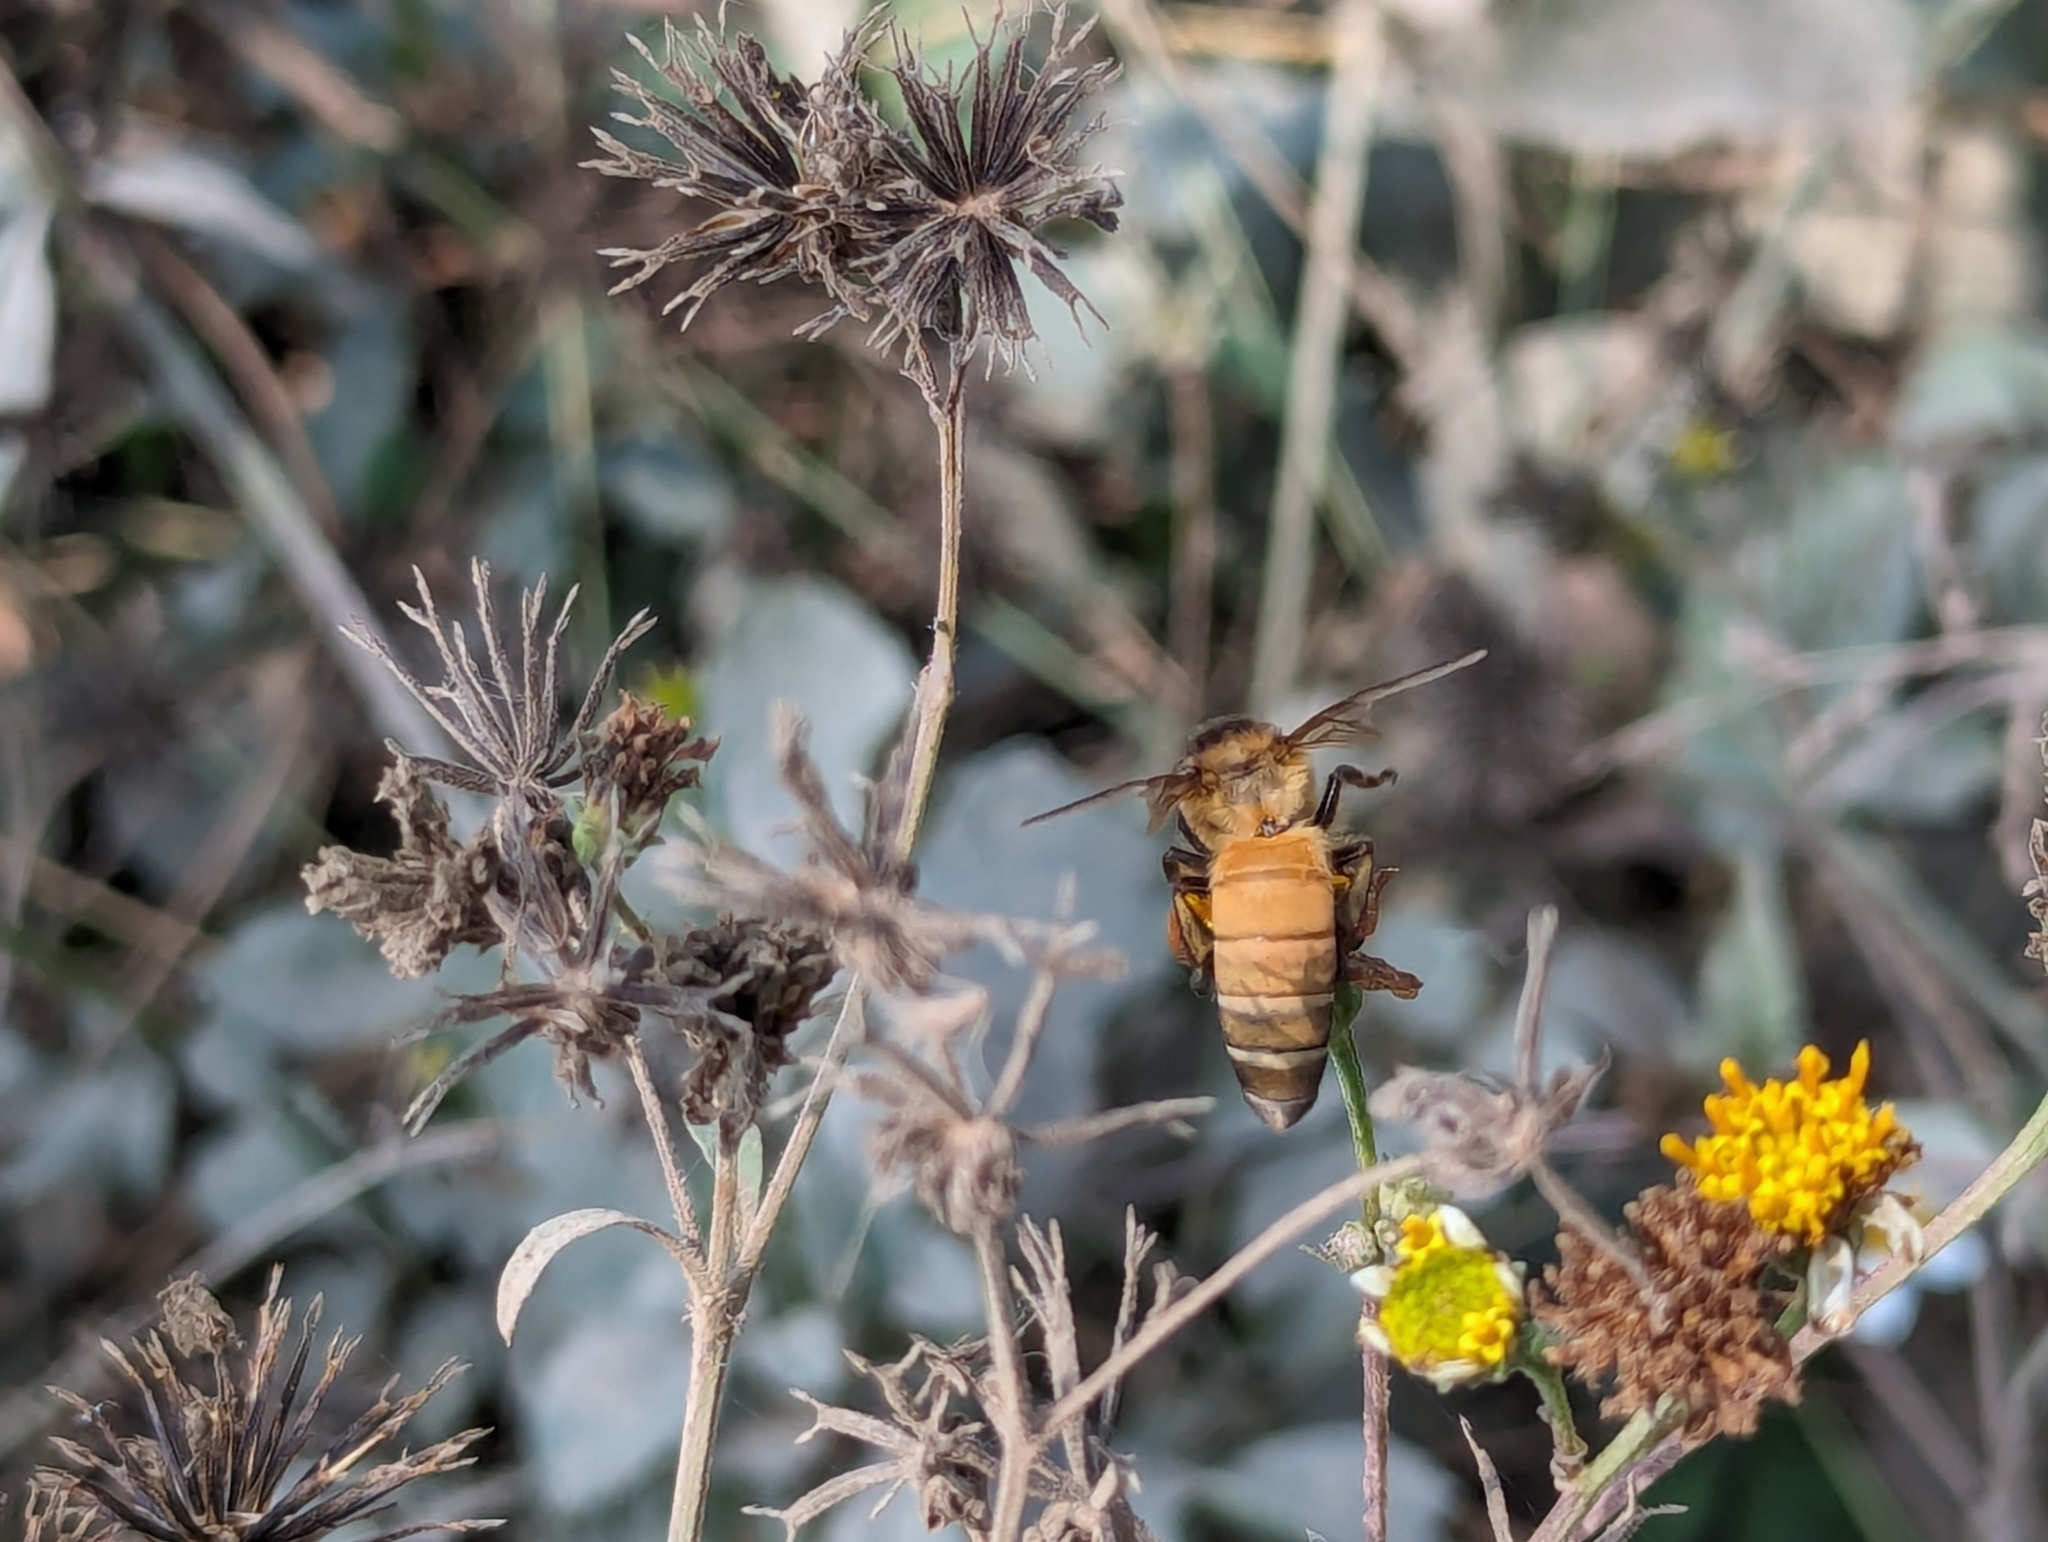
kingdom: Animalia
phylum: Arthropoda
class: Insecta
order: Hymenoptera
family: Apidae
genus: Apis
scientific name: Apis dorsata
